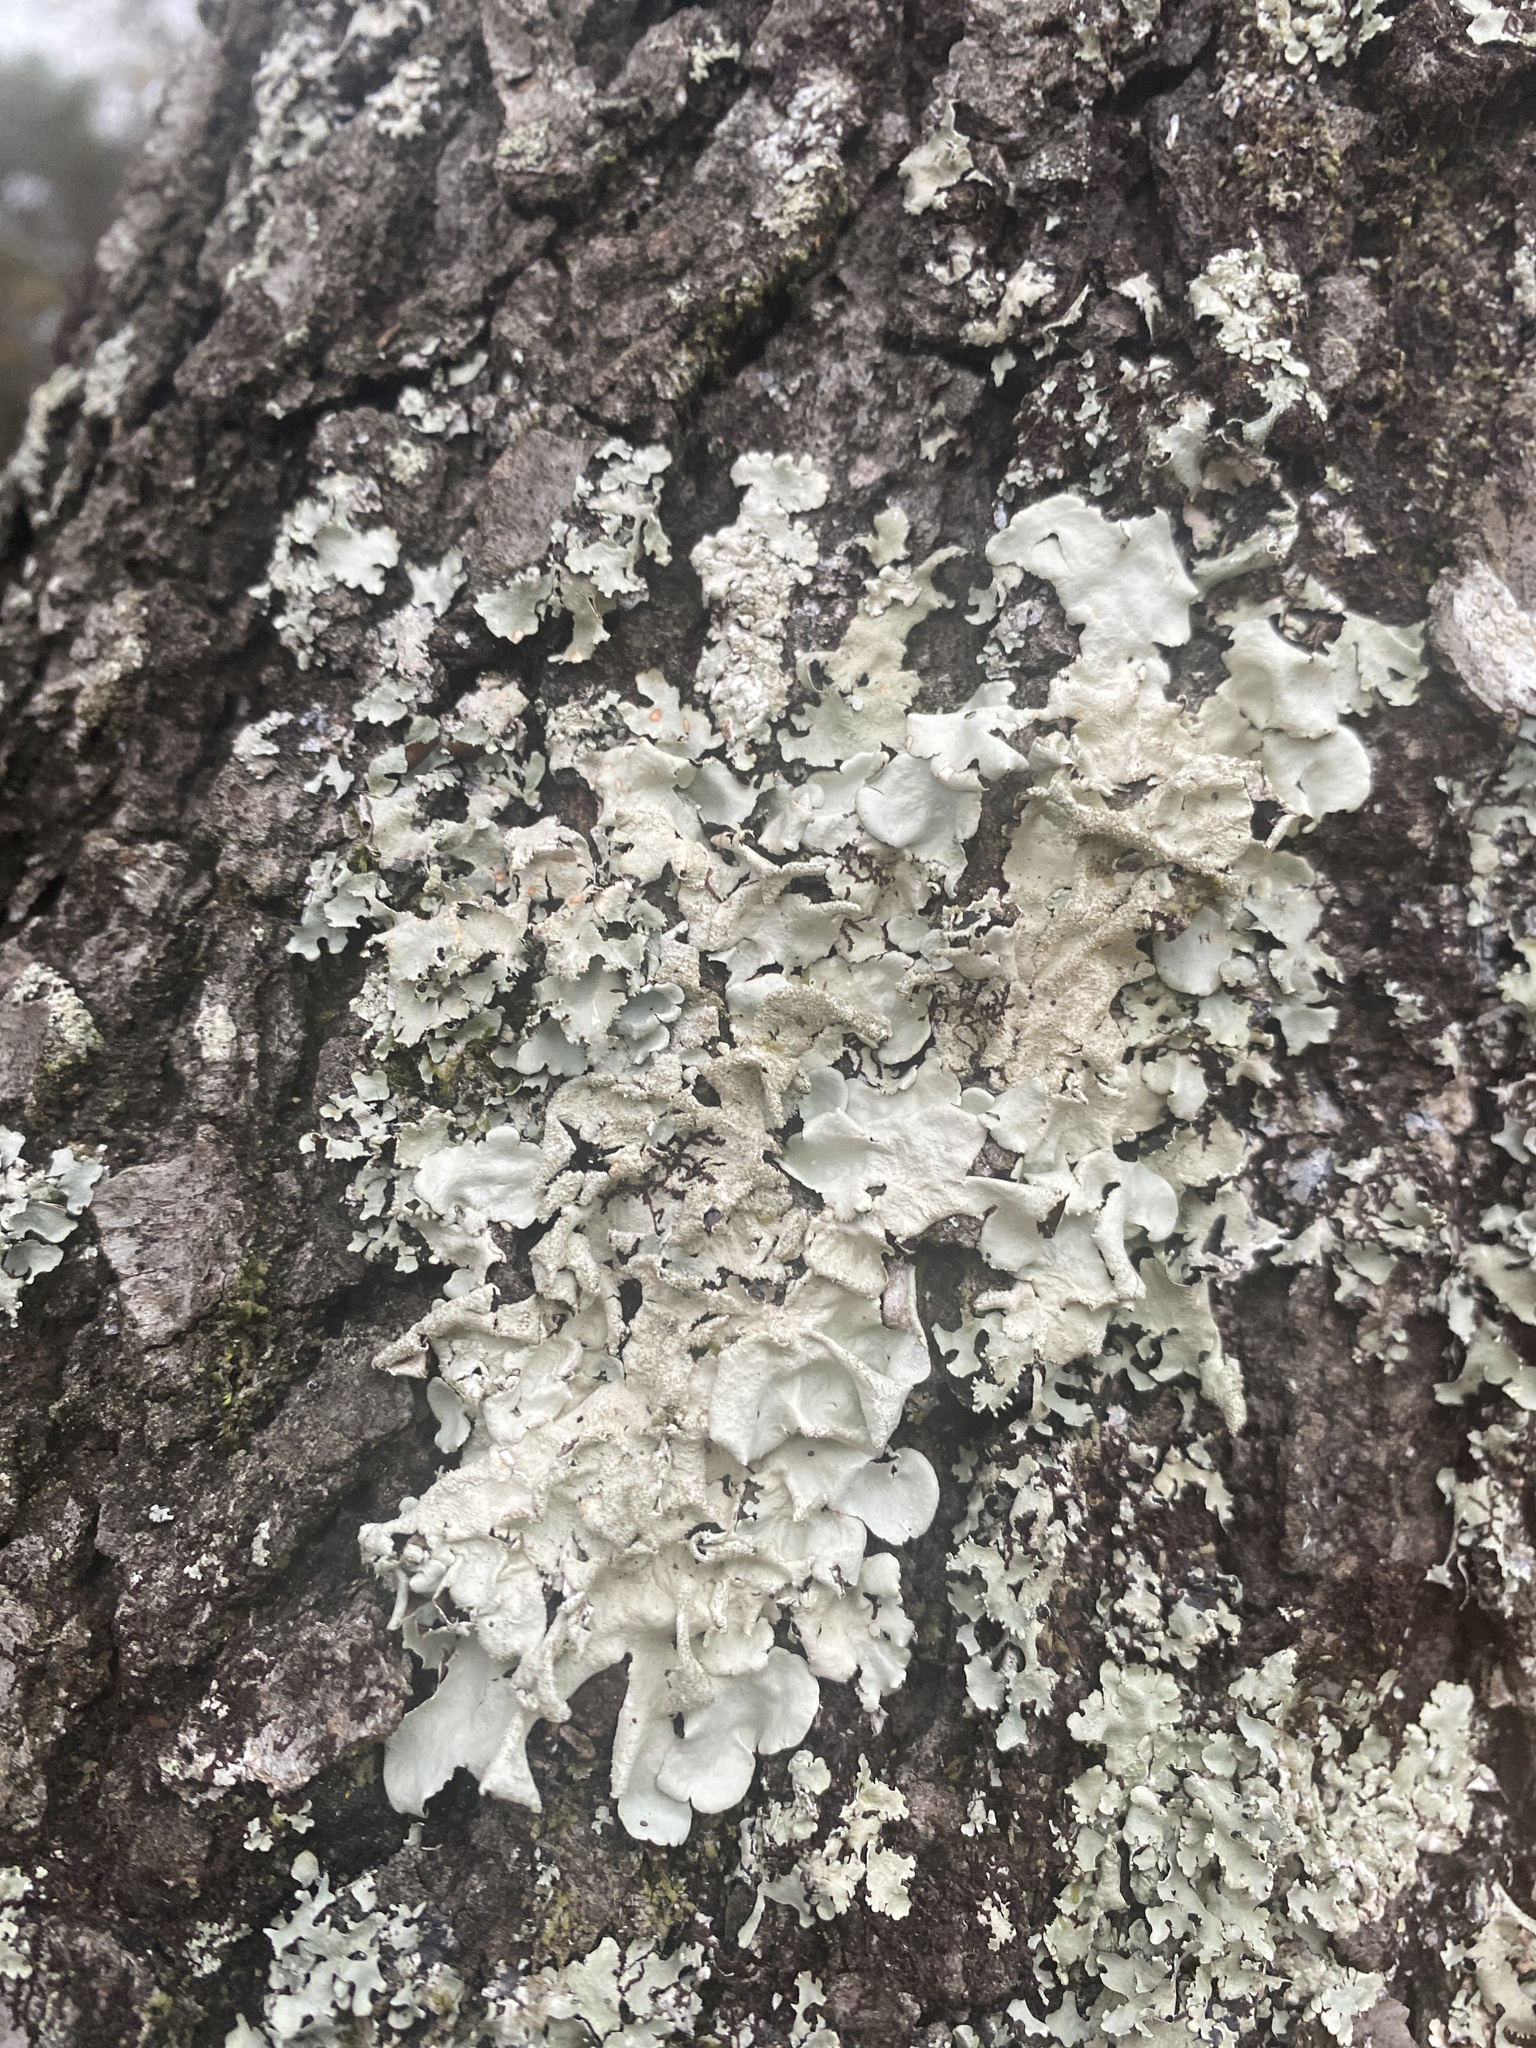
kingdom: Fungi
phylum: Ascomycota
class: Lecanoromycetes
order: Lecanorales
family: Parmeliaceae
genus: Parmotrema
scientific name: Parmotrema tinctorum
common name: Old gray ruffles
